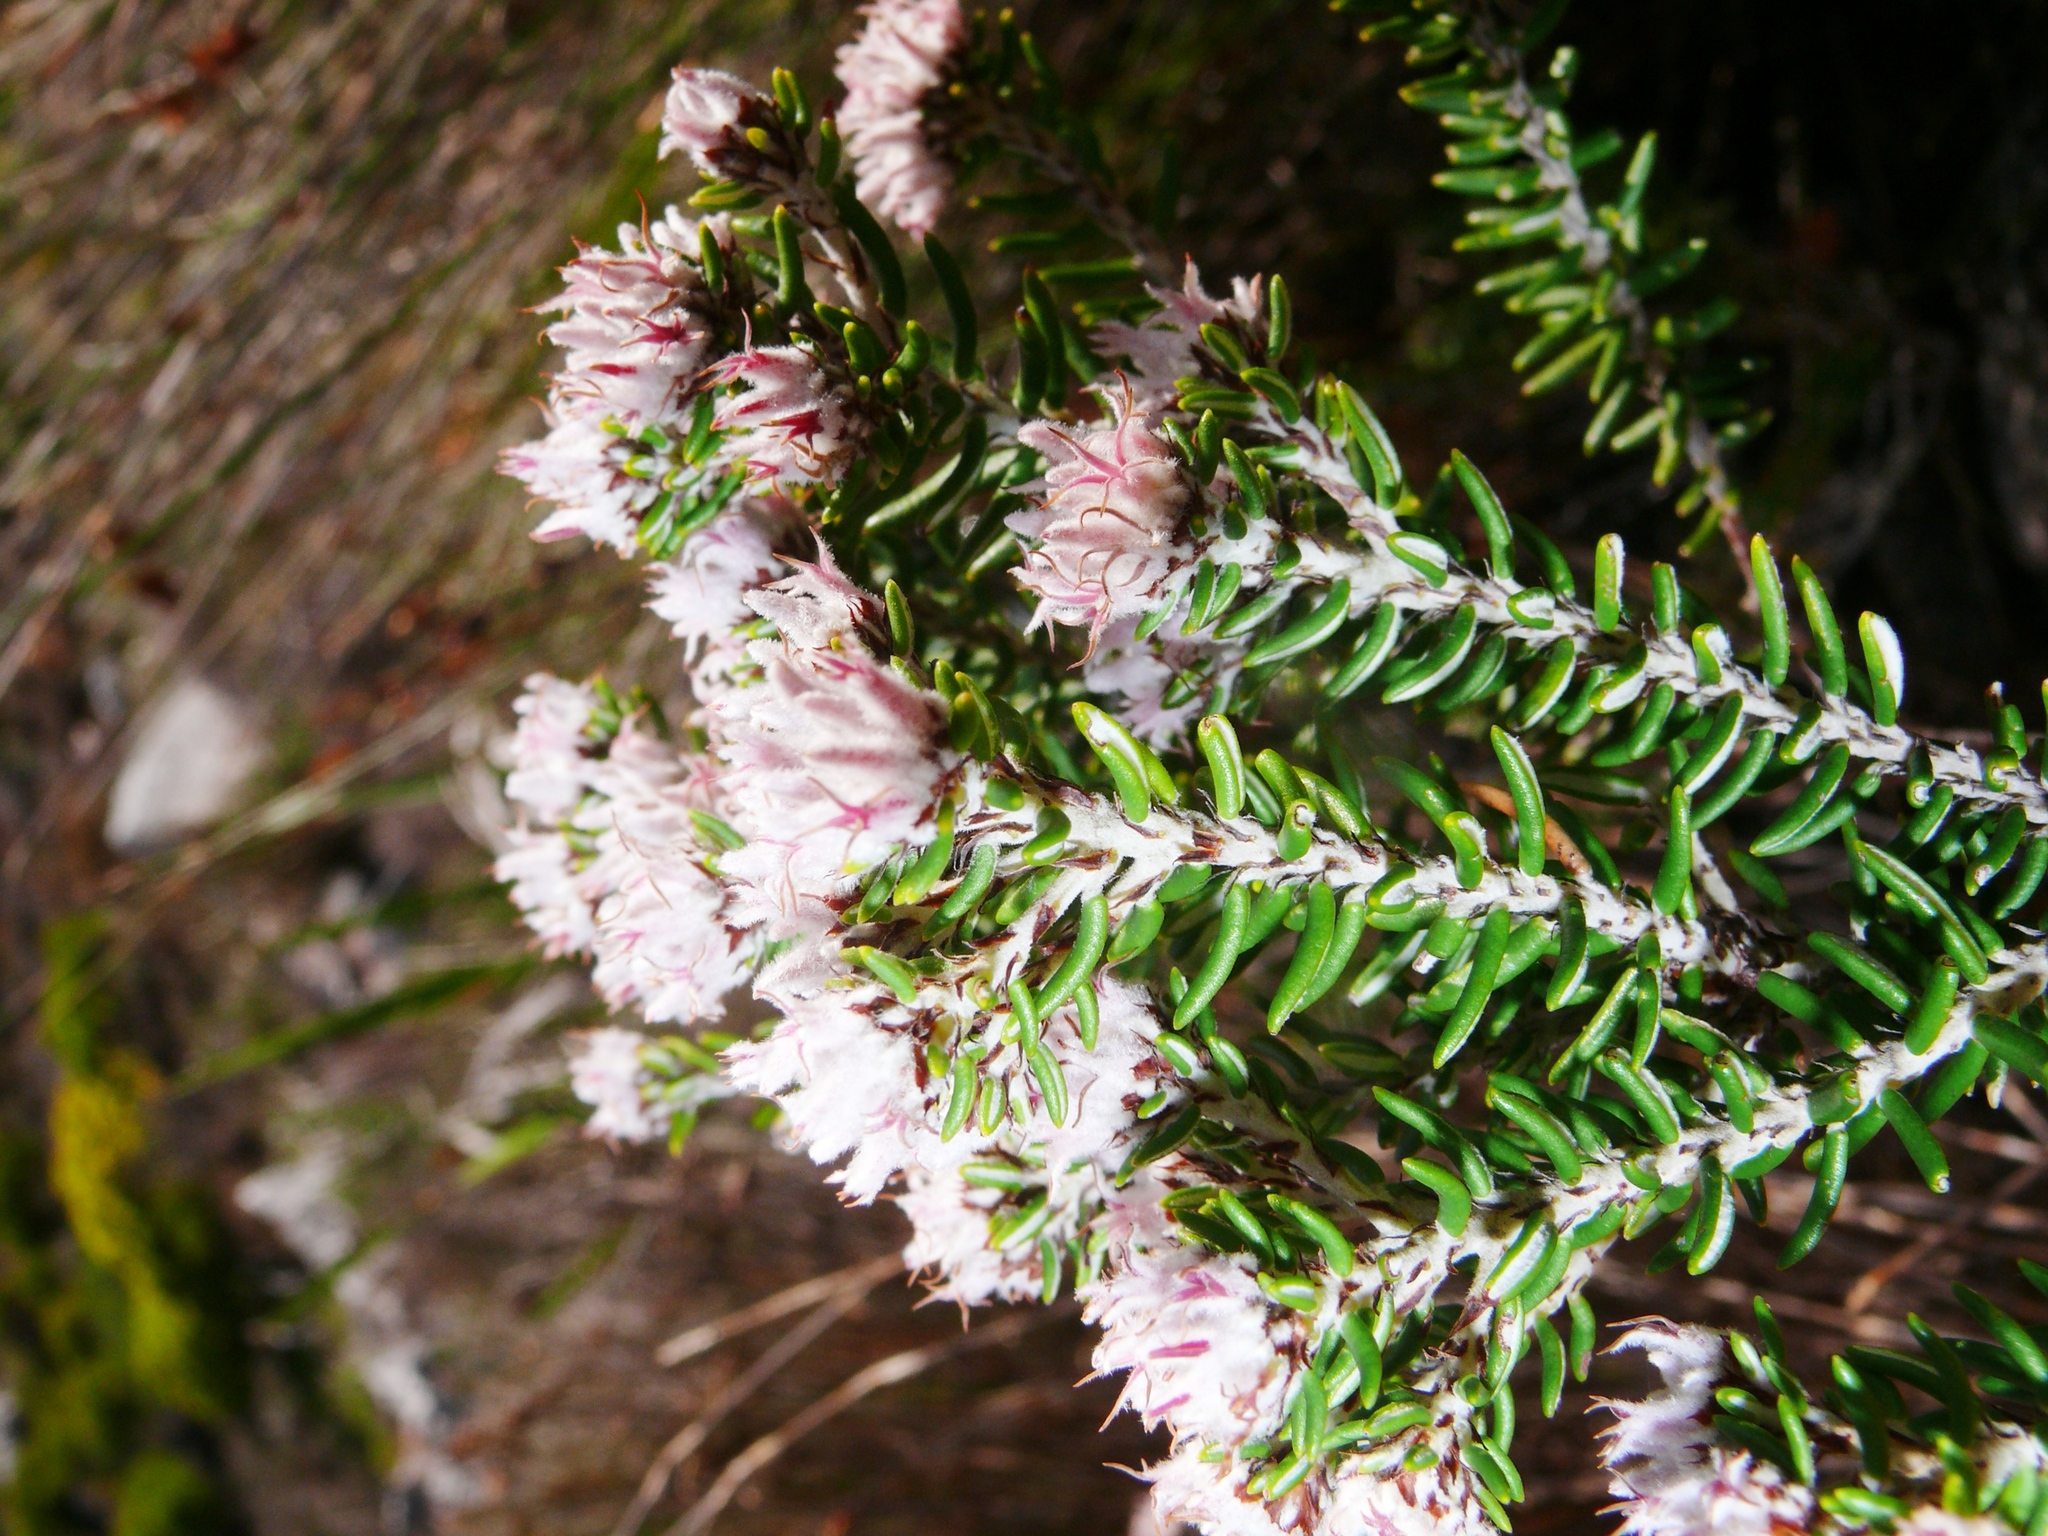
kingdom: Plantae
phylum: Tracheophyta
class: Magnoliopsida
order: Rosales
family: Rhamnaceae
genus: Trichocephalus
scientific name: Trichocephalus stipularis
